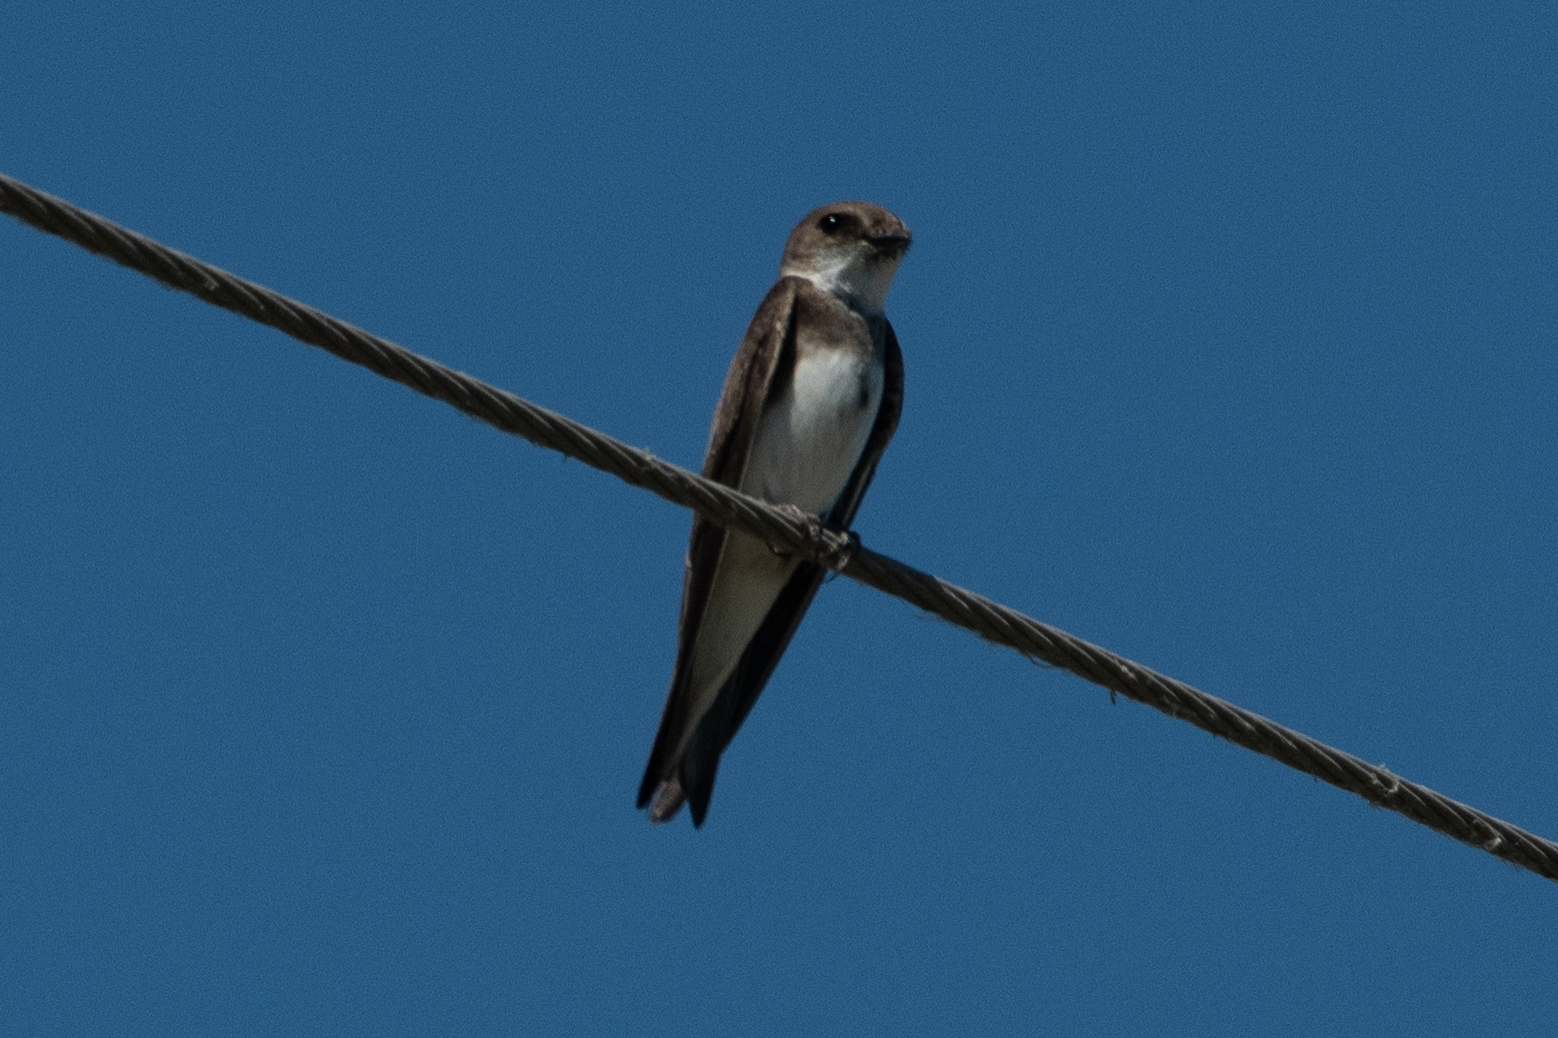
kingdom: Animalia
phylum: Chordata
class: Aves
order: Passeriformes
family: Hirundinidae
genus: Riparia
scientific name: Riparia riparia
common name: Sand martin
